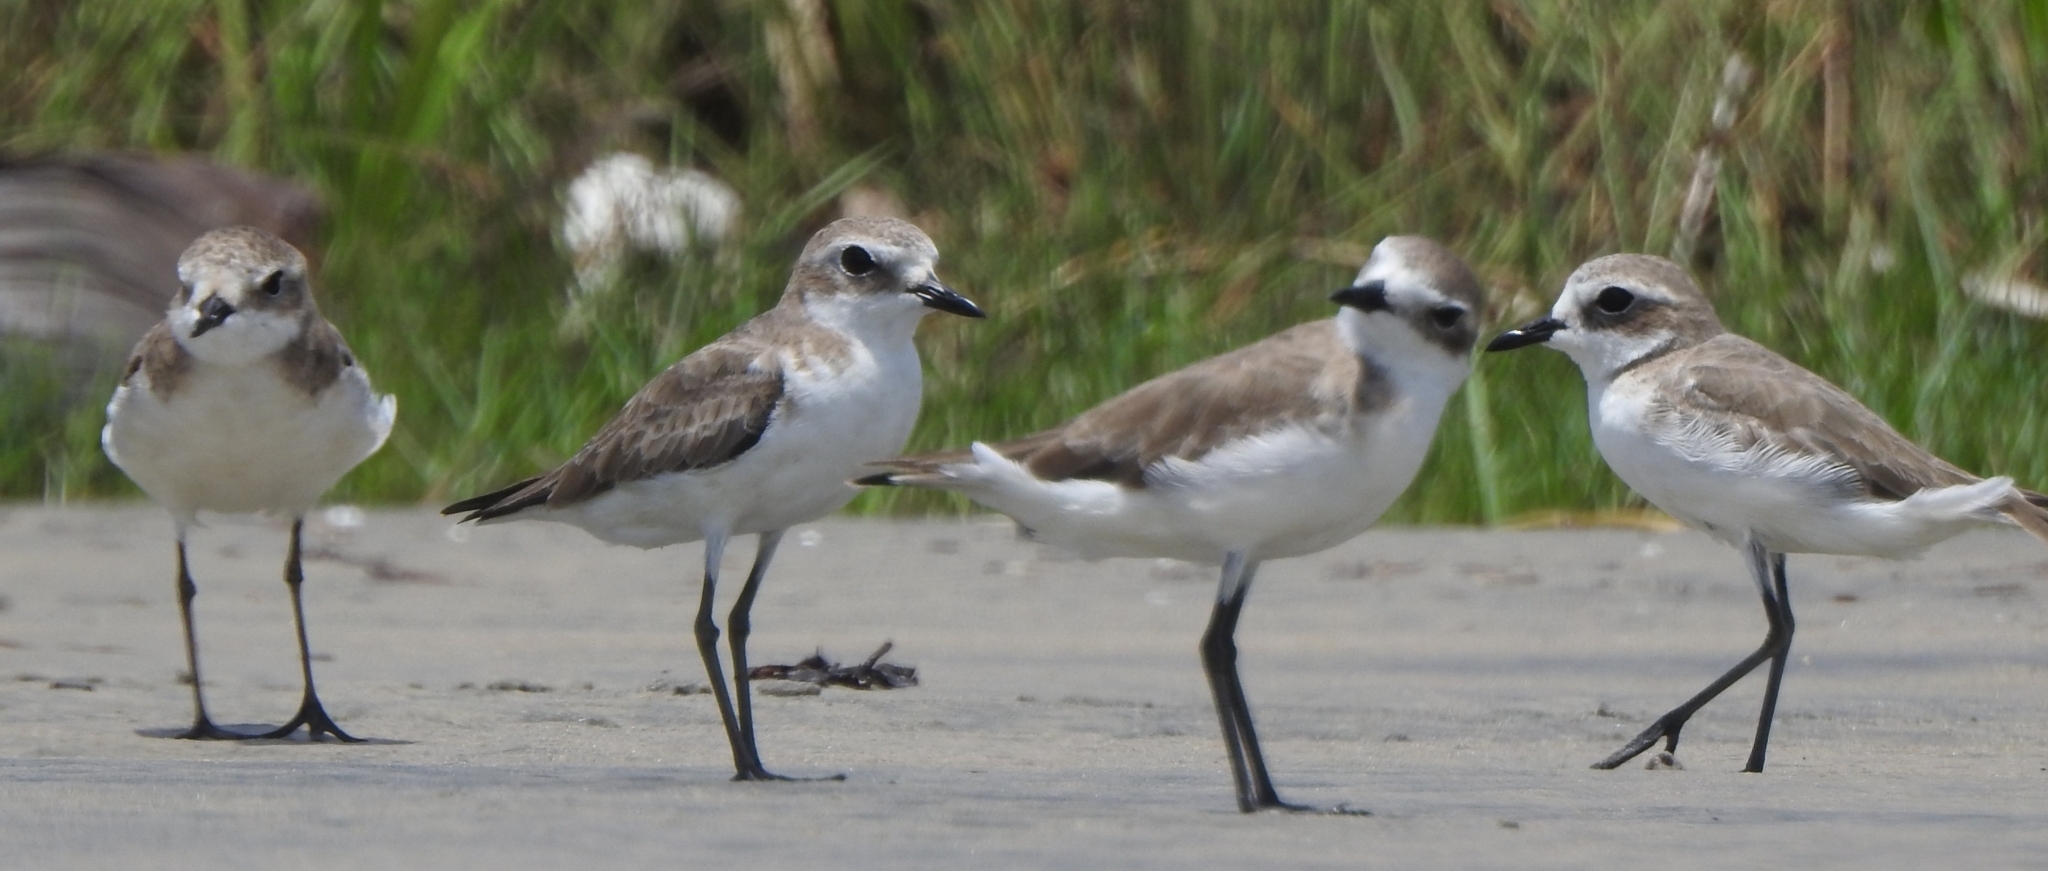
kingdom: Animalia
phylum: Chordata
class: Aves
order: Charadriiformes
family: Charadriidae
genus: Anarhynchus
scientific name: Anarhynchus
